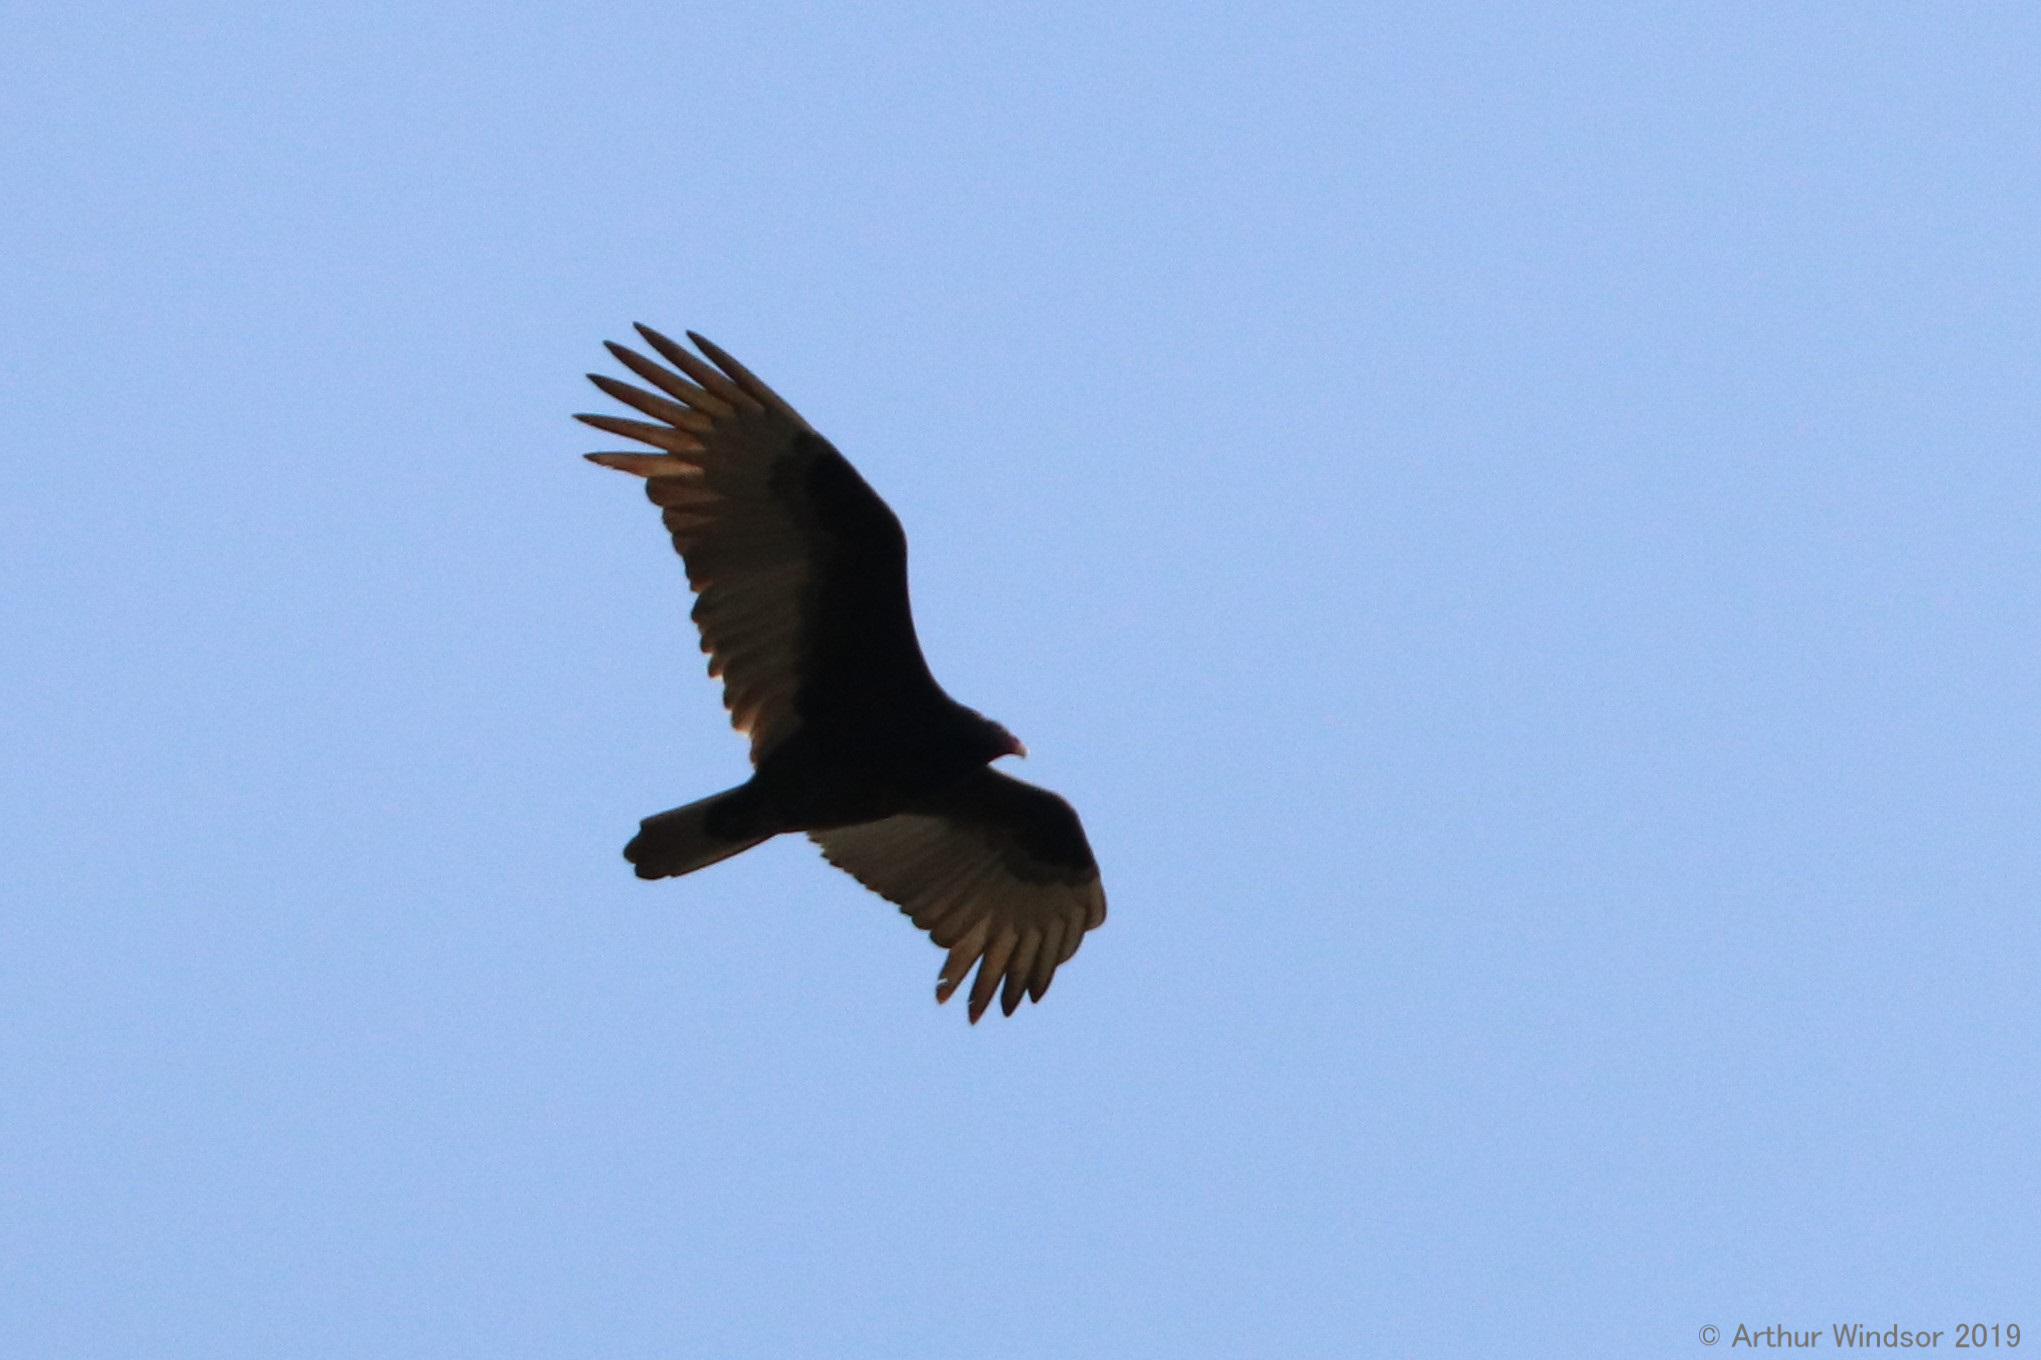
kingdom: Animalia
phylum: Chordata
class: Aves
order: Accipitriformes
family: Cathartidae
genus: Cathartes
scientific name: Cathartes aura
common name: Turkey vulture
